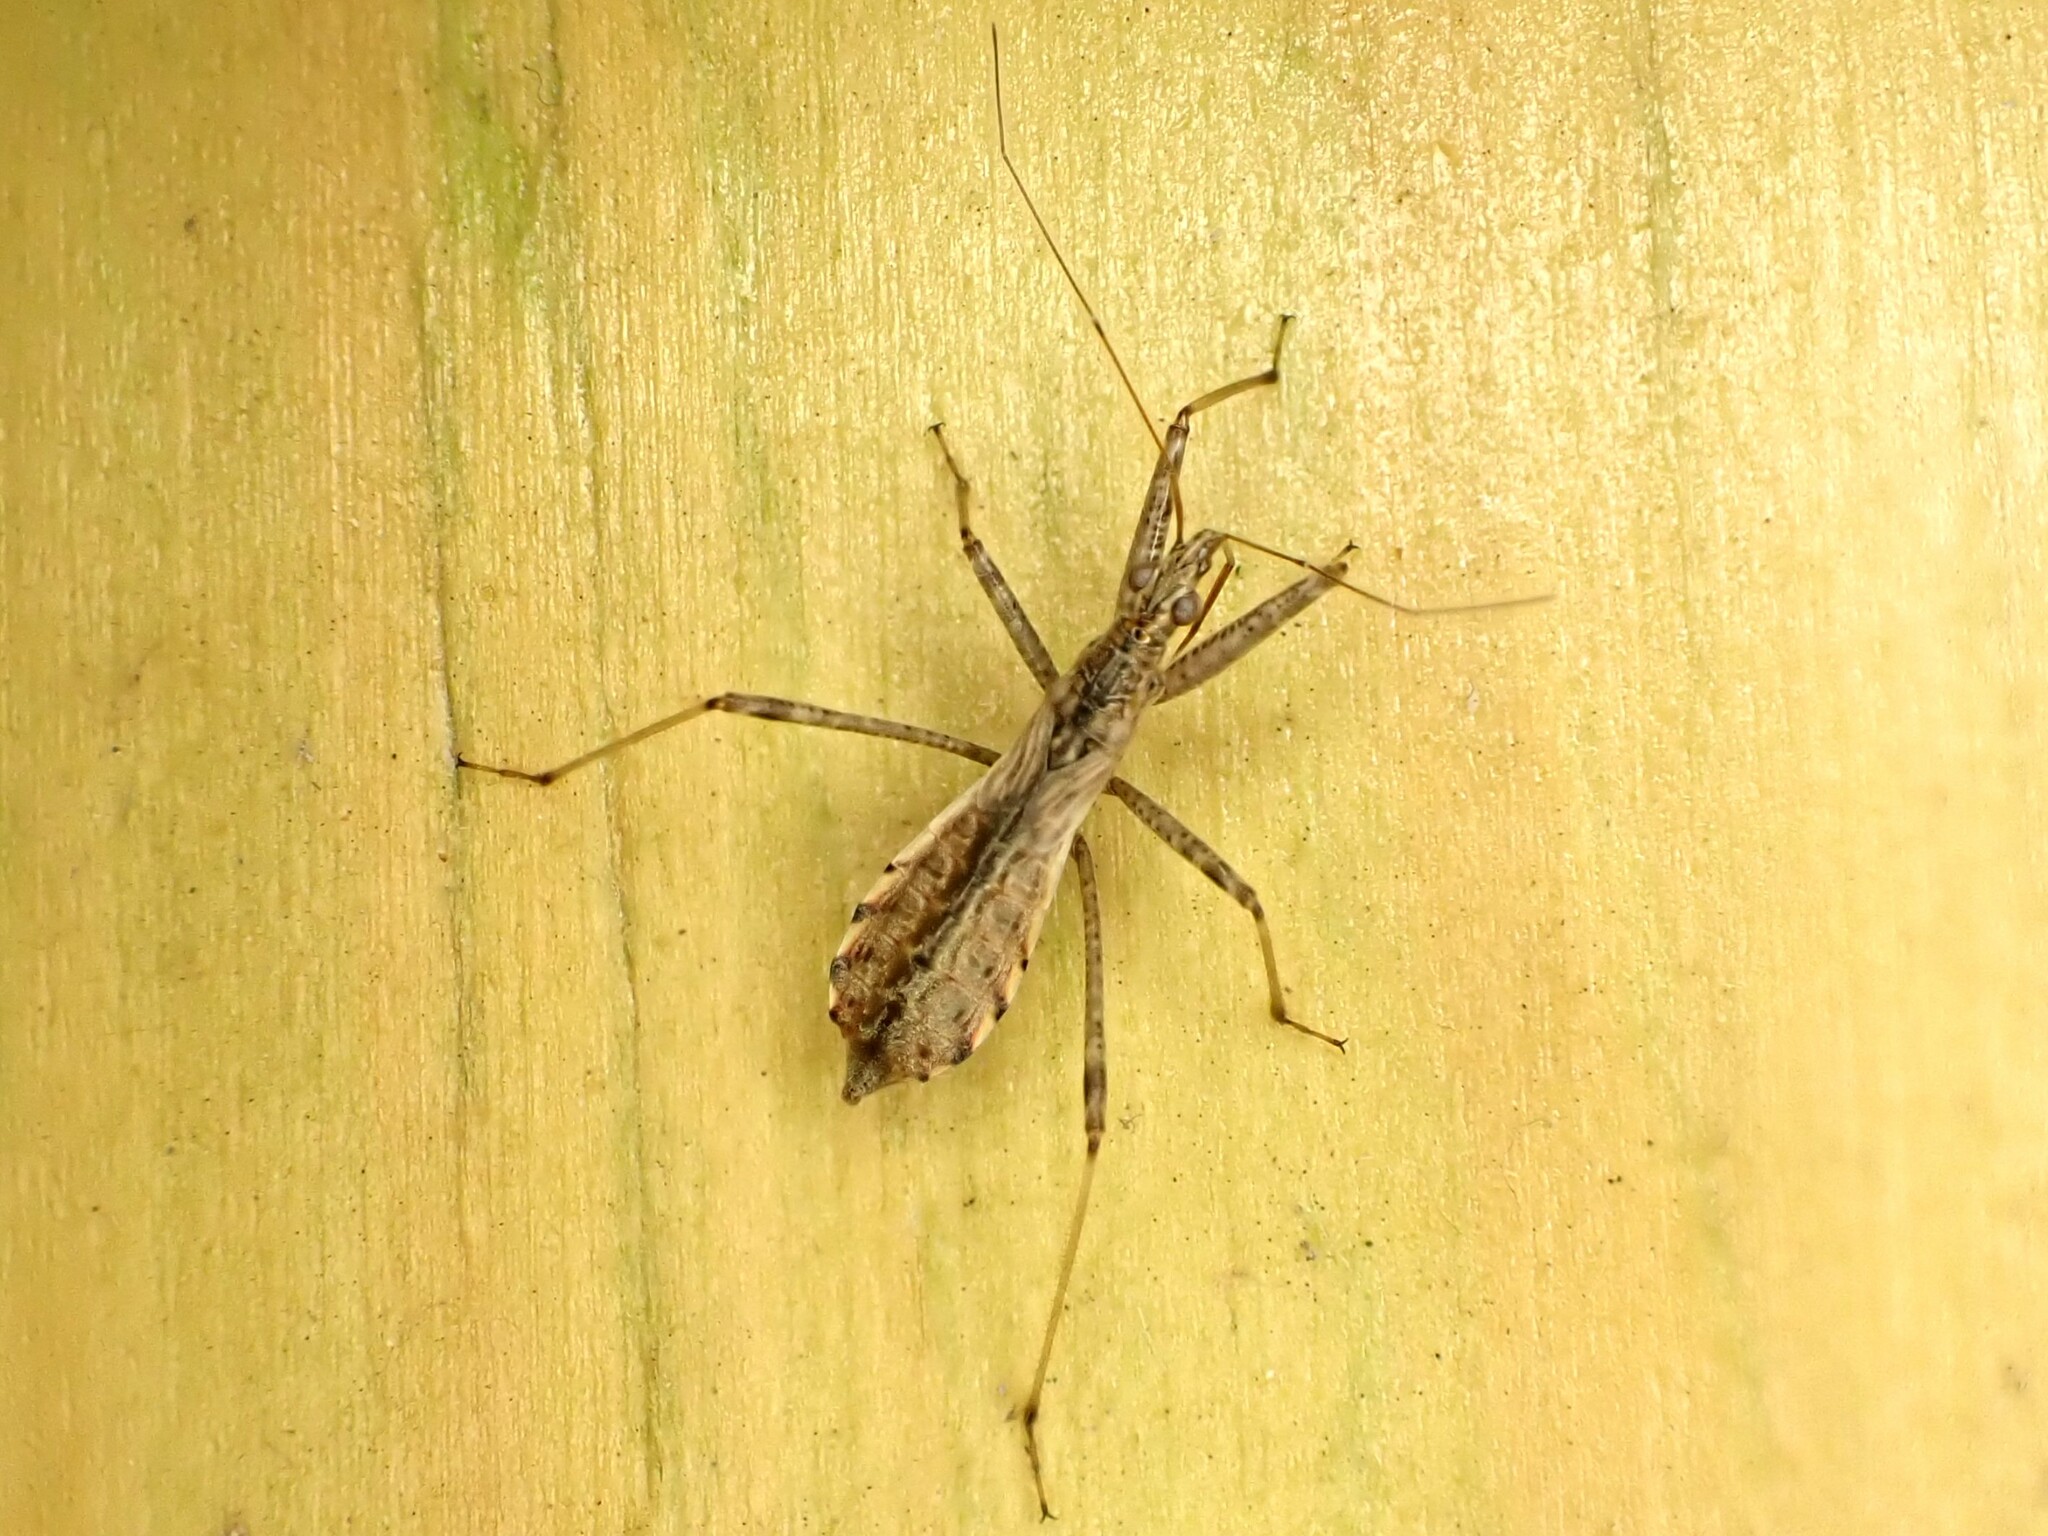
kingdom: Animalia
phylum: Arthropoda
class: Insecta
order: Hemiptera
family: Nabidae
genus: Nabis
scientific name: Nabis
